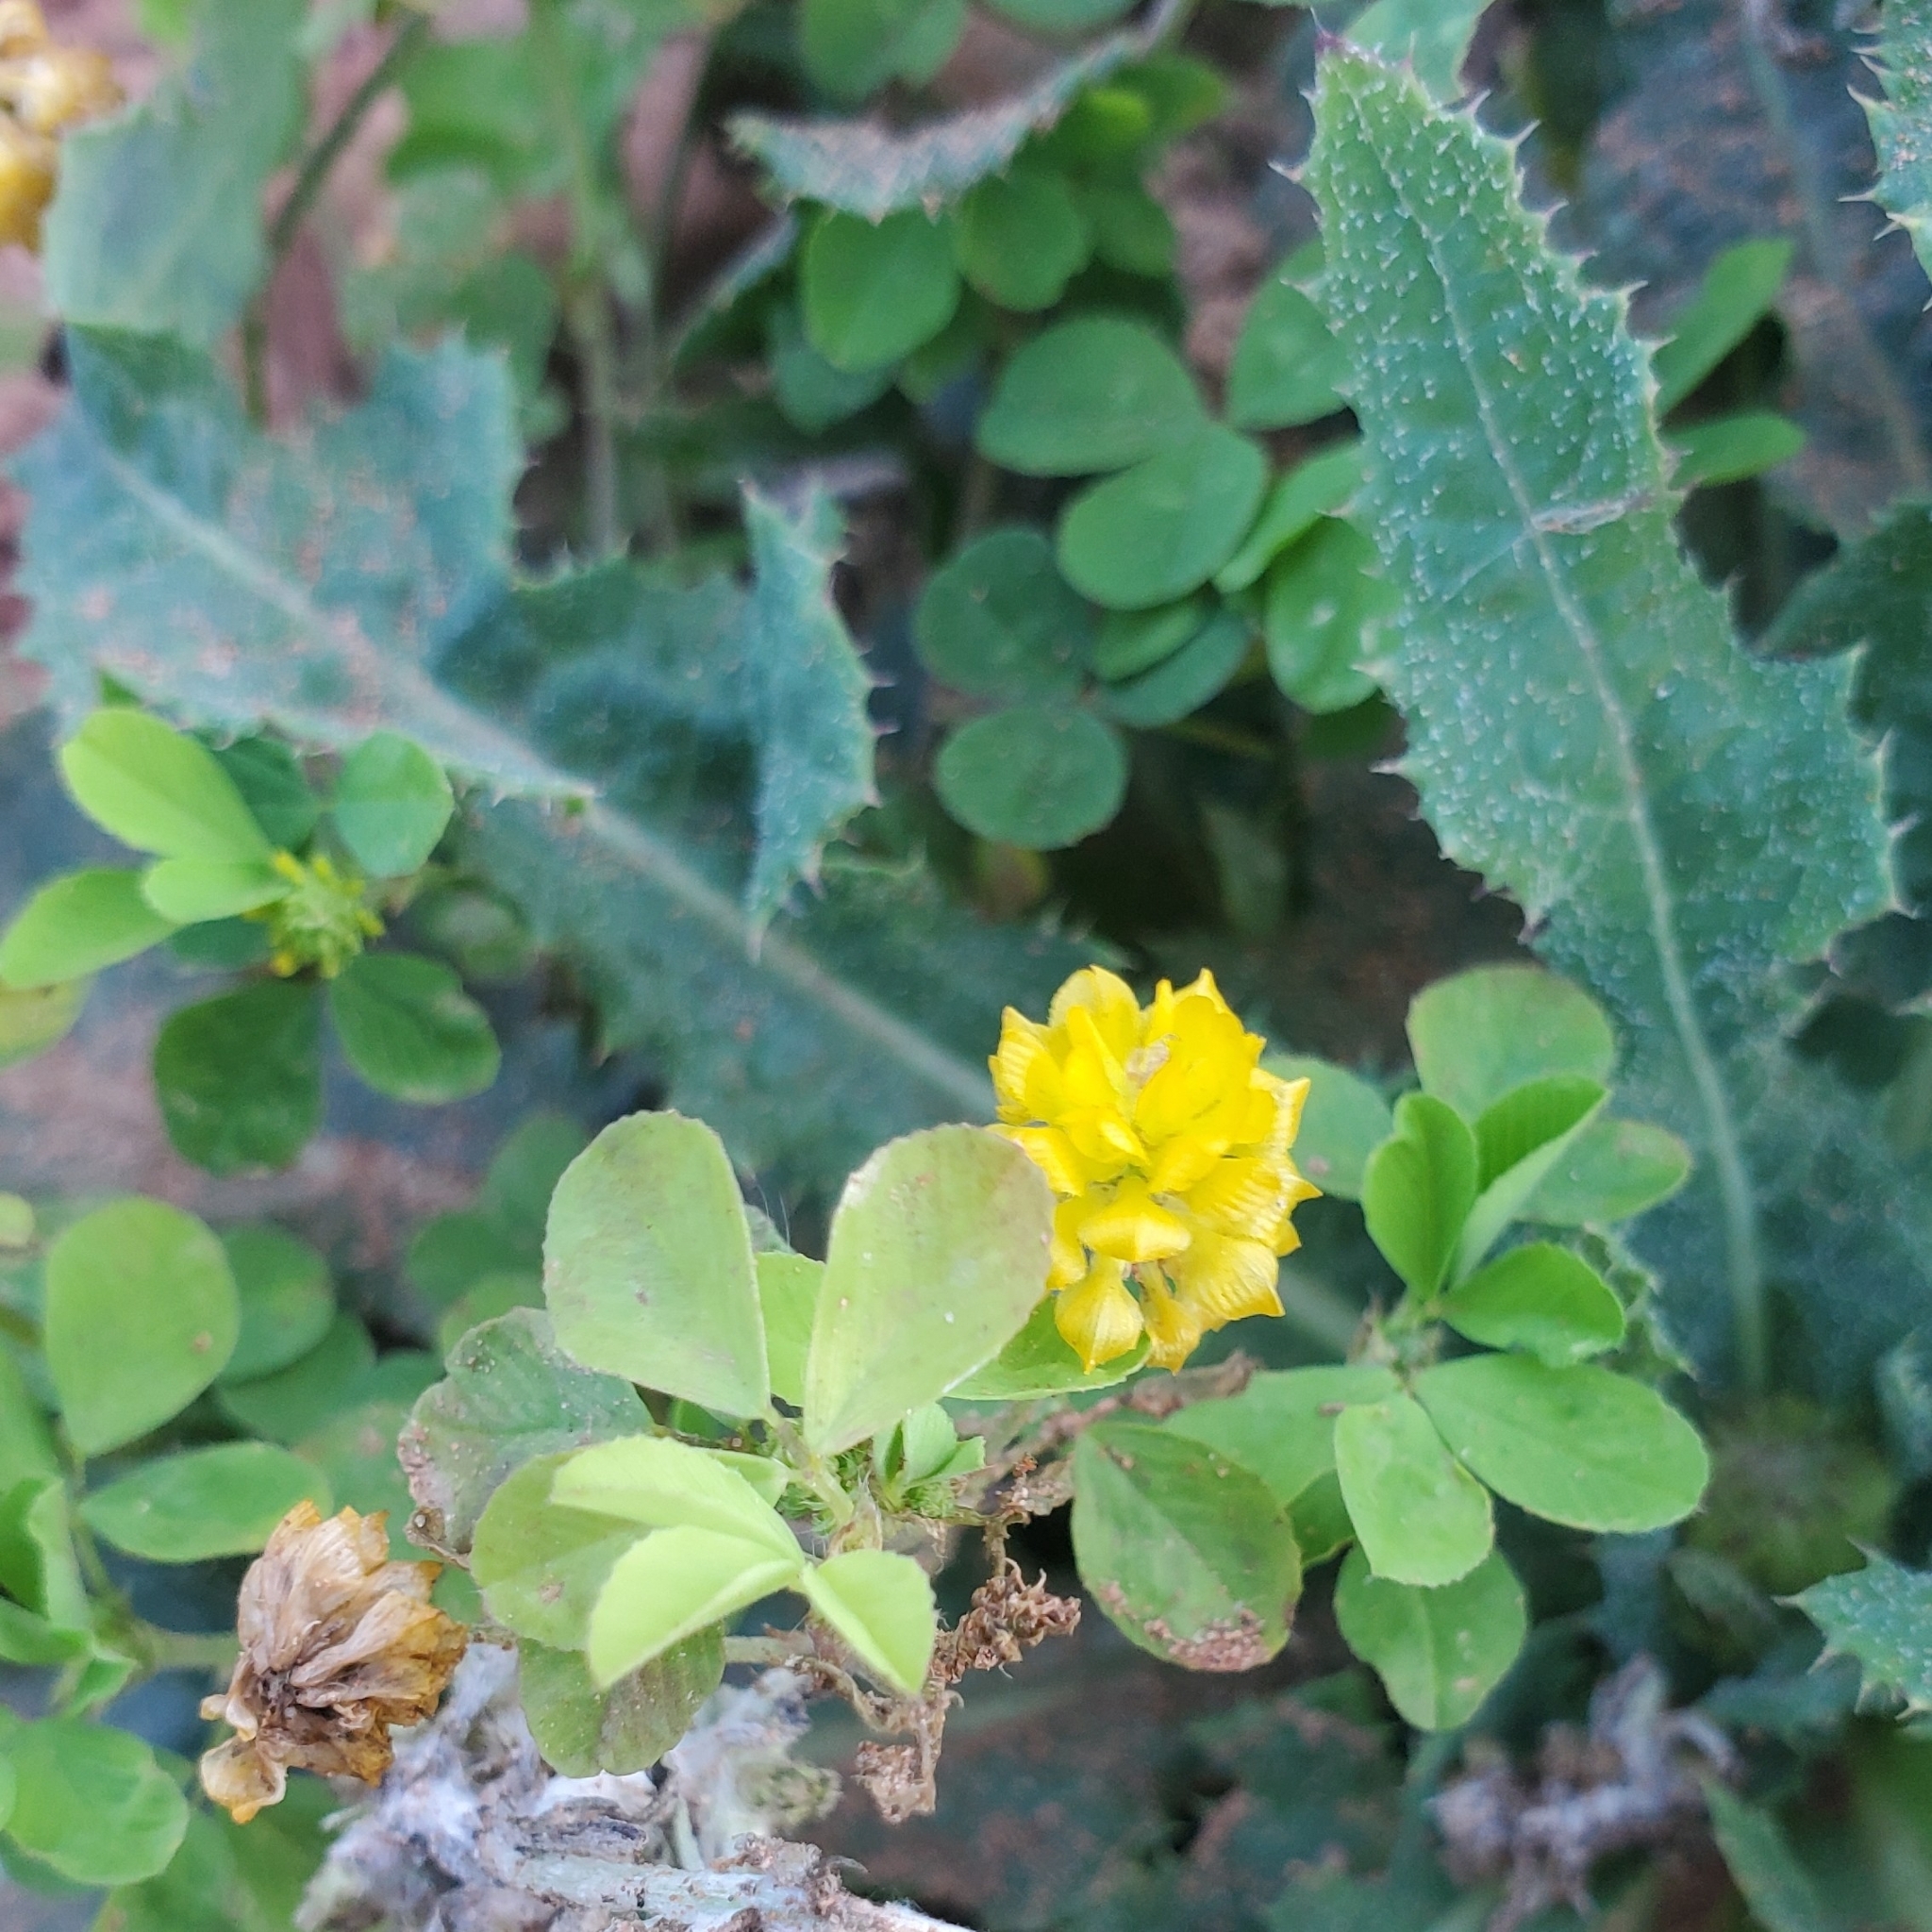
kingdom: Plantae
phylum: Tracheophyta
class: Magnoliopsida
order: Fabales
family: Fabaceae
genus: Trifolium
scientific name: Trifolium campestre
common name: Field clover
